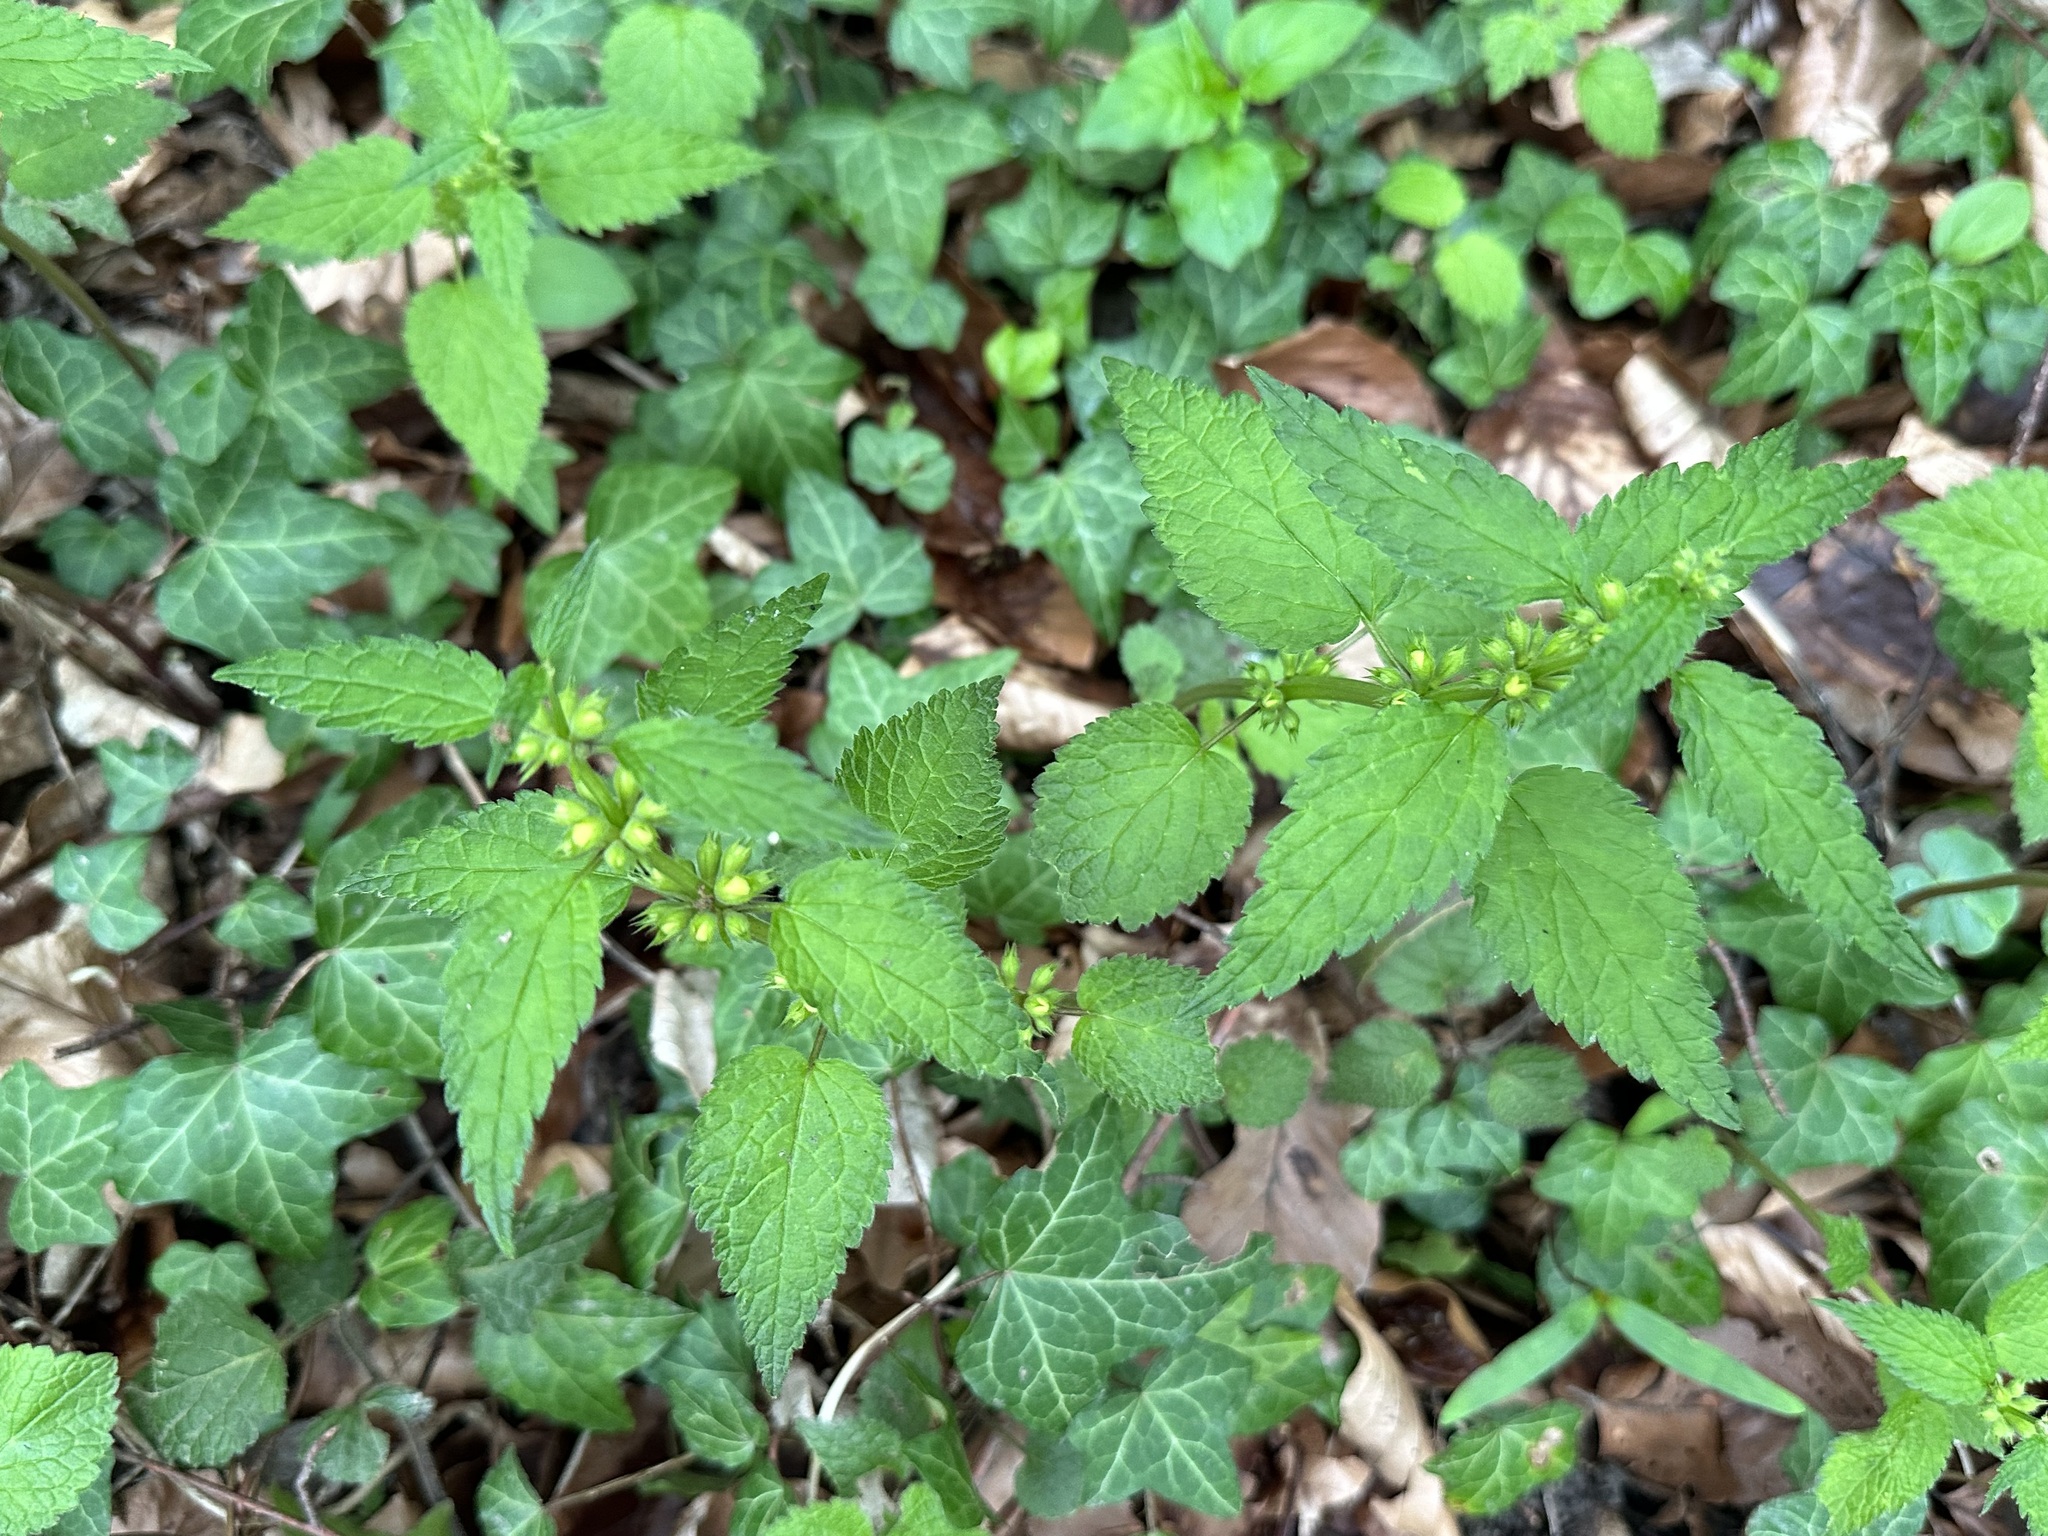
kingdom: Plantae
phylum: Tracheophyta
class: Magnoliopsida
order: Lamiales
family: Lamiaceae
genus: Lamium
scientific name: Lamium galeobdolon
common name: Yellow archangel
